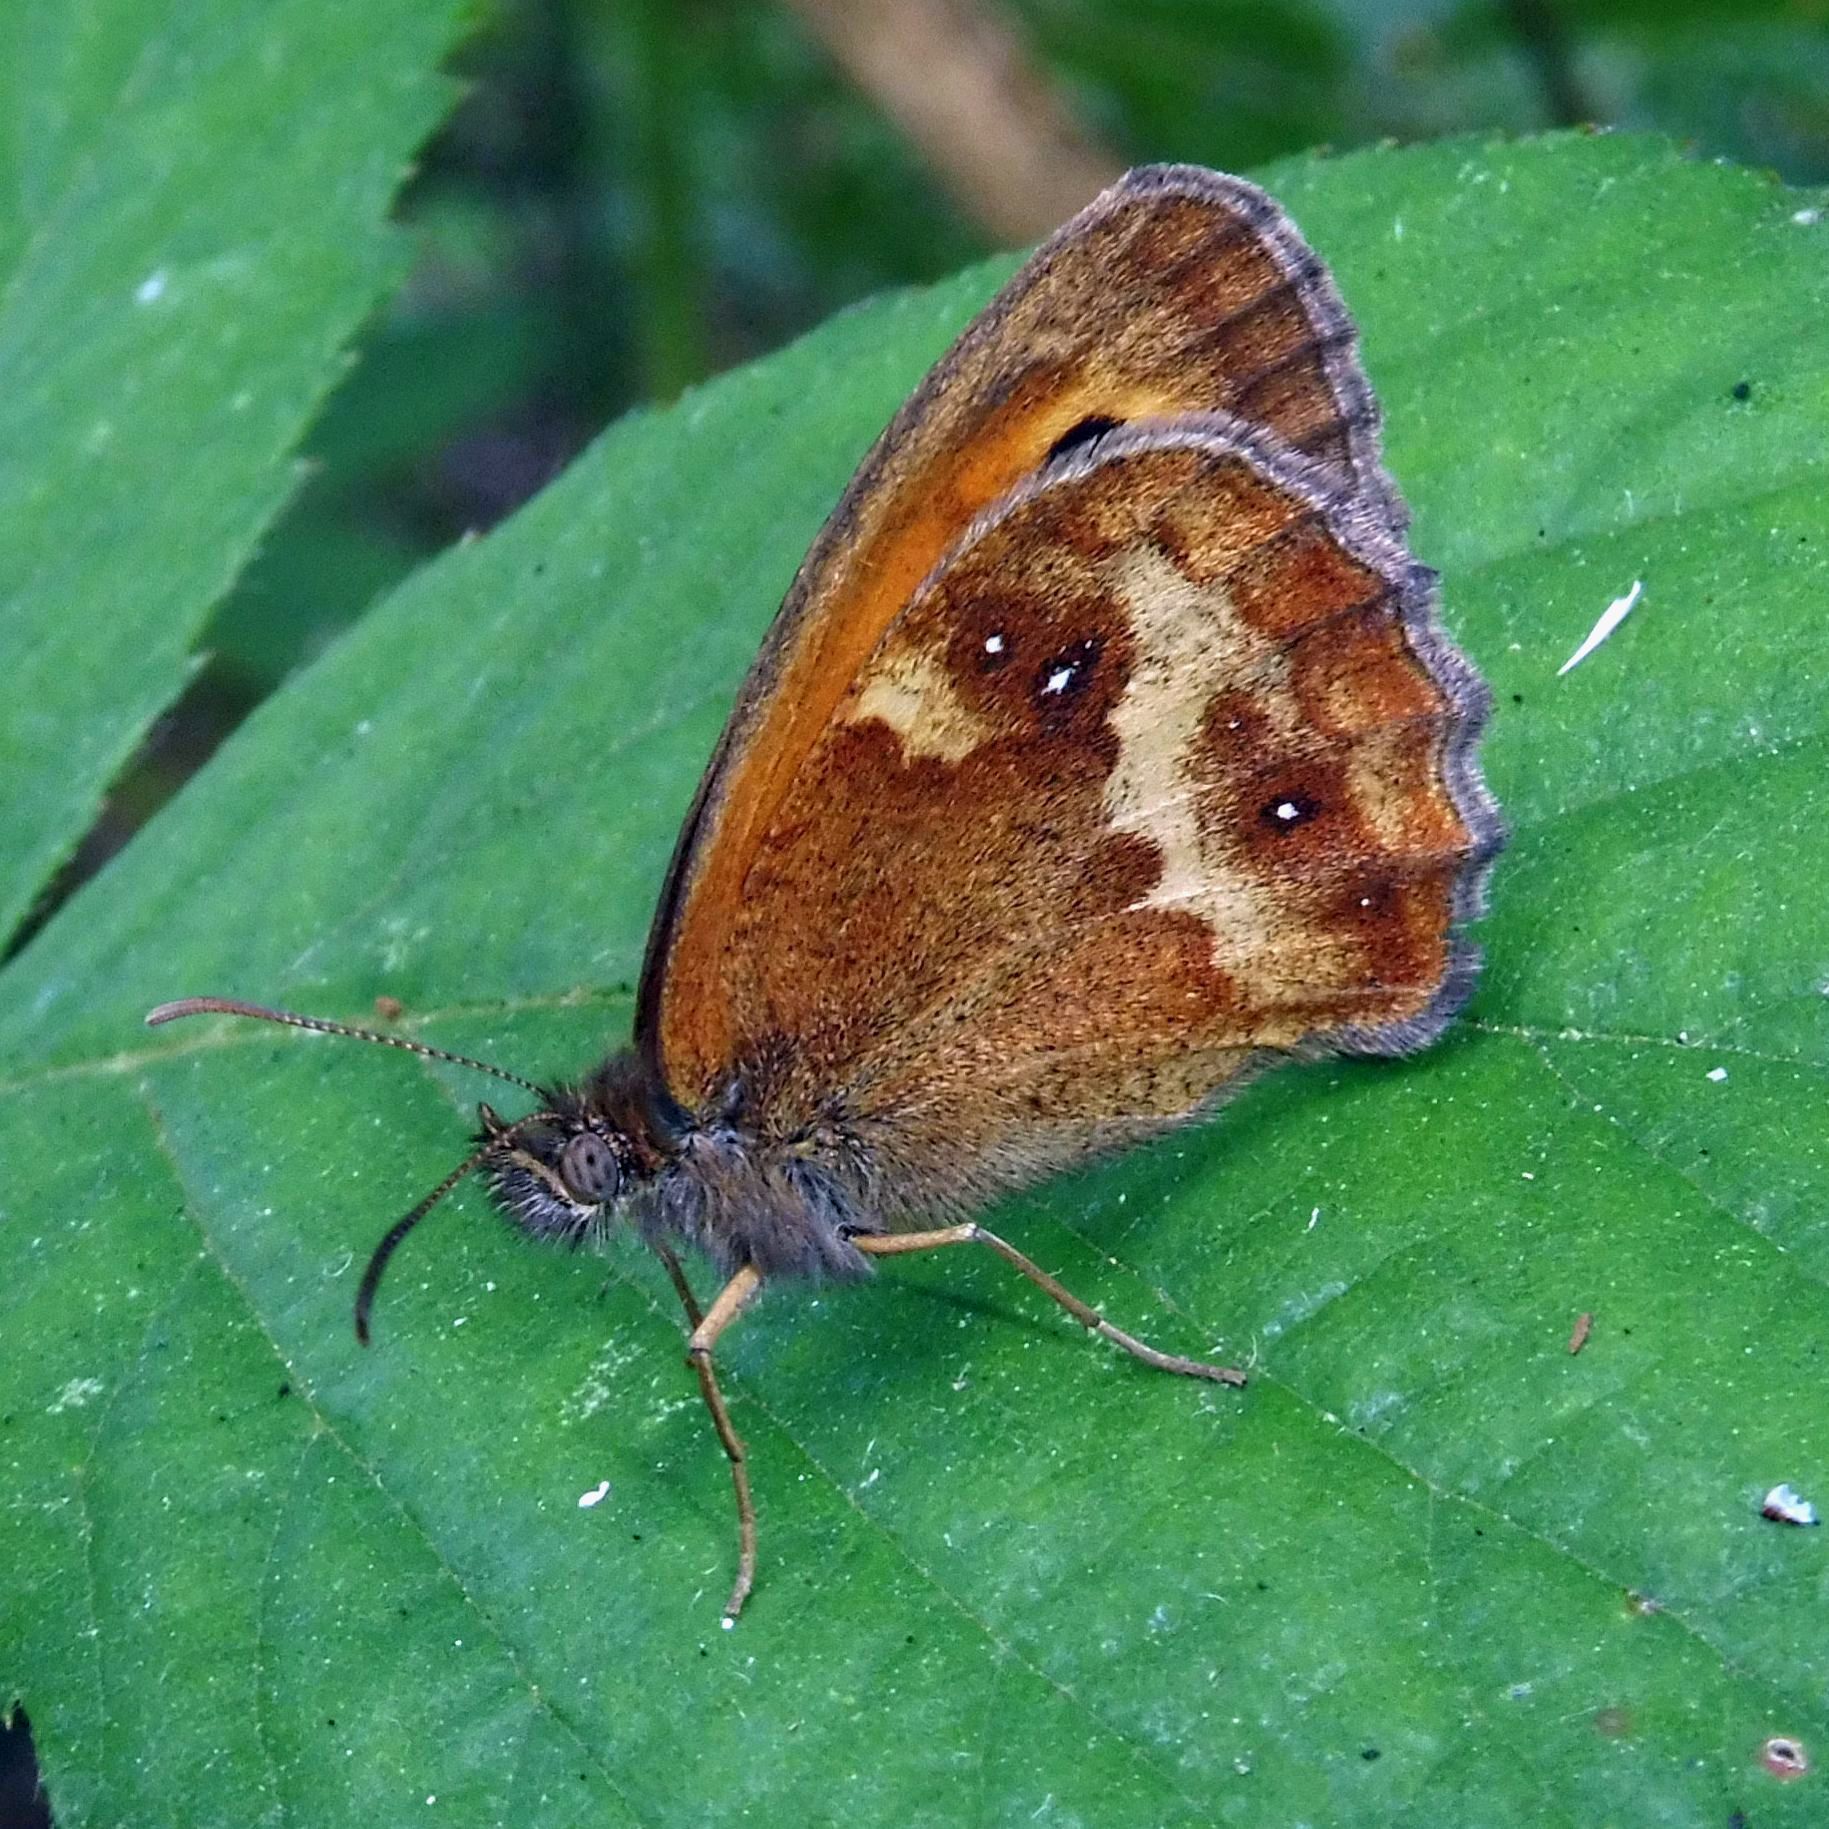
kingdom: Animalia
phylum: Arthropoda
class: Insecta
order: Lepidoptera
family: Nymphalidae
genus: Pyronia
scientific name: Pyronia tithonus
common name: Gatekeeper
